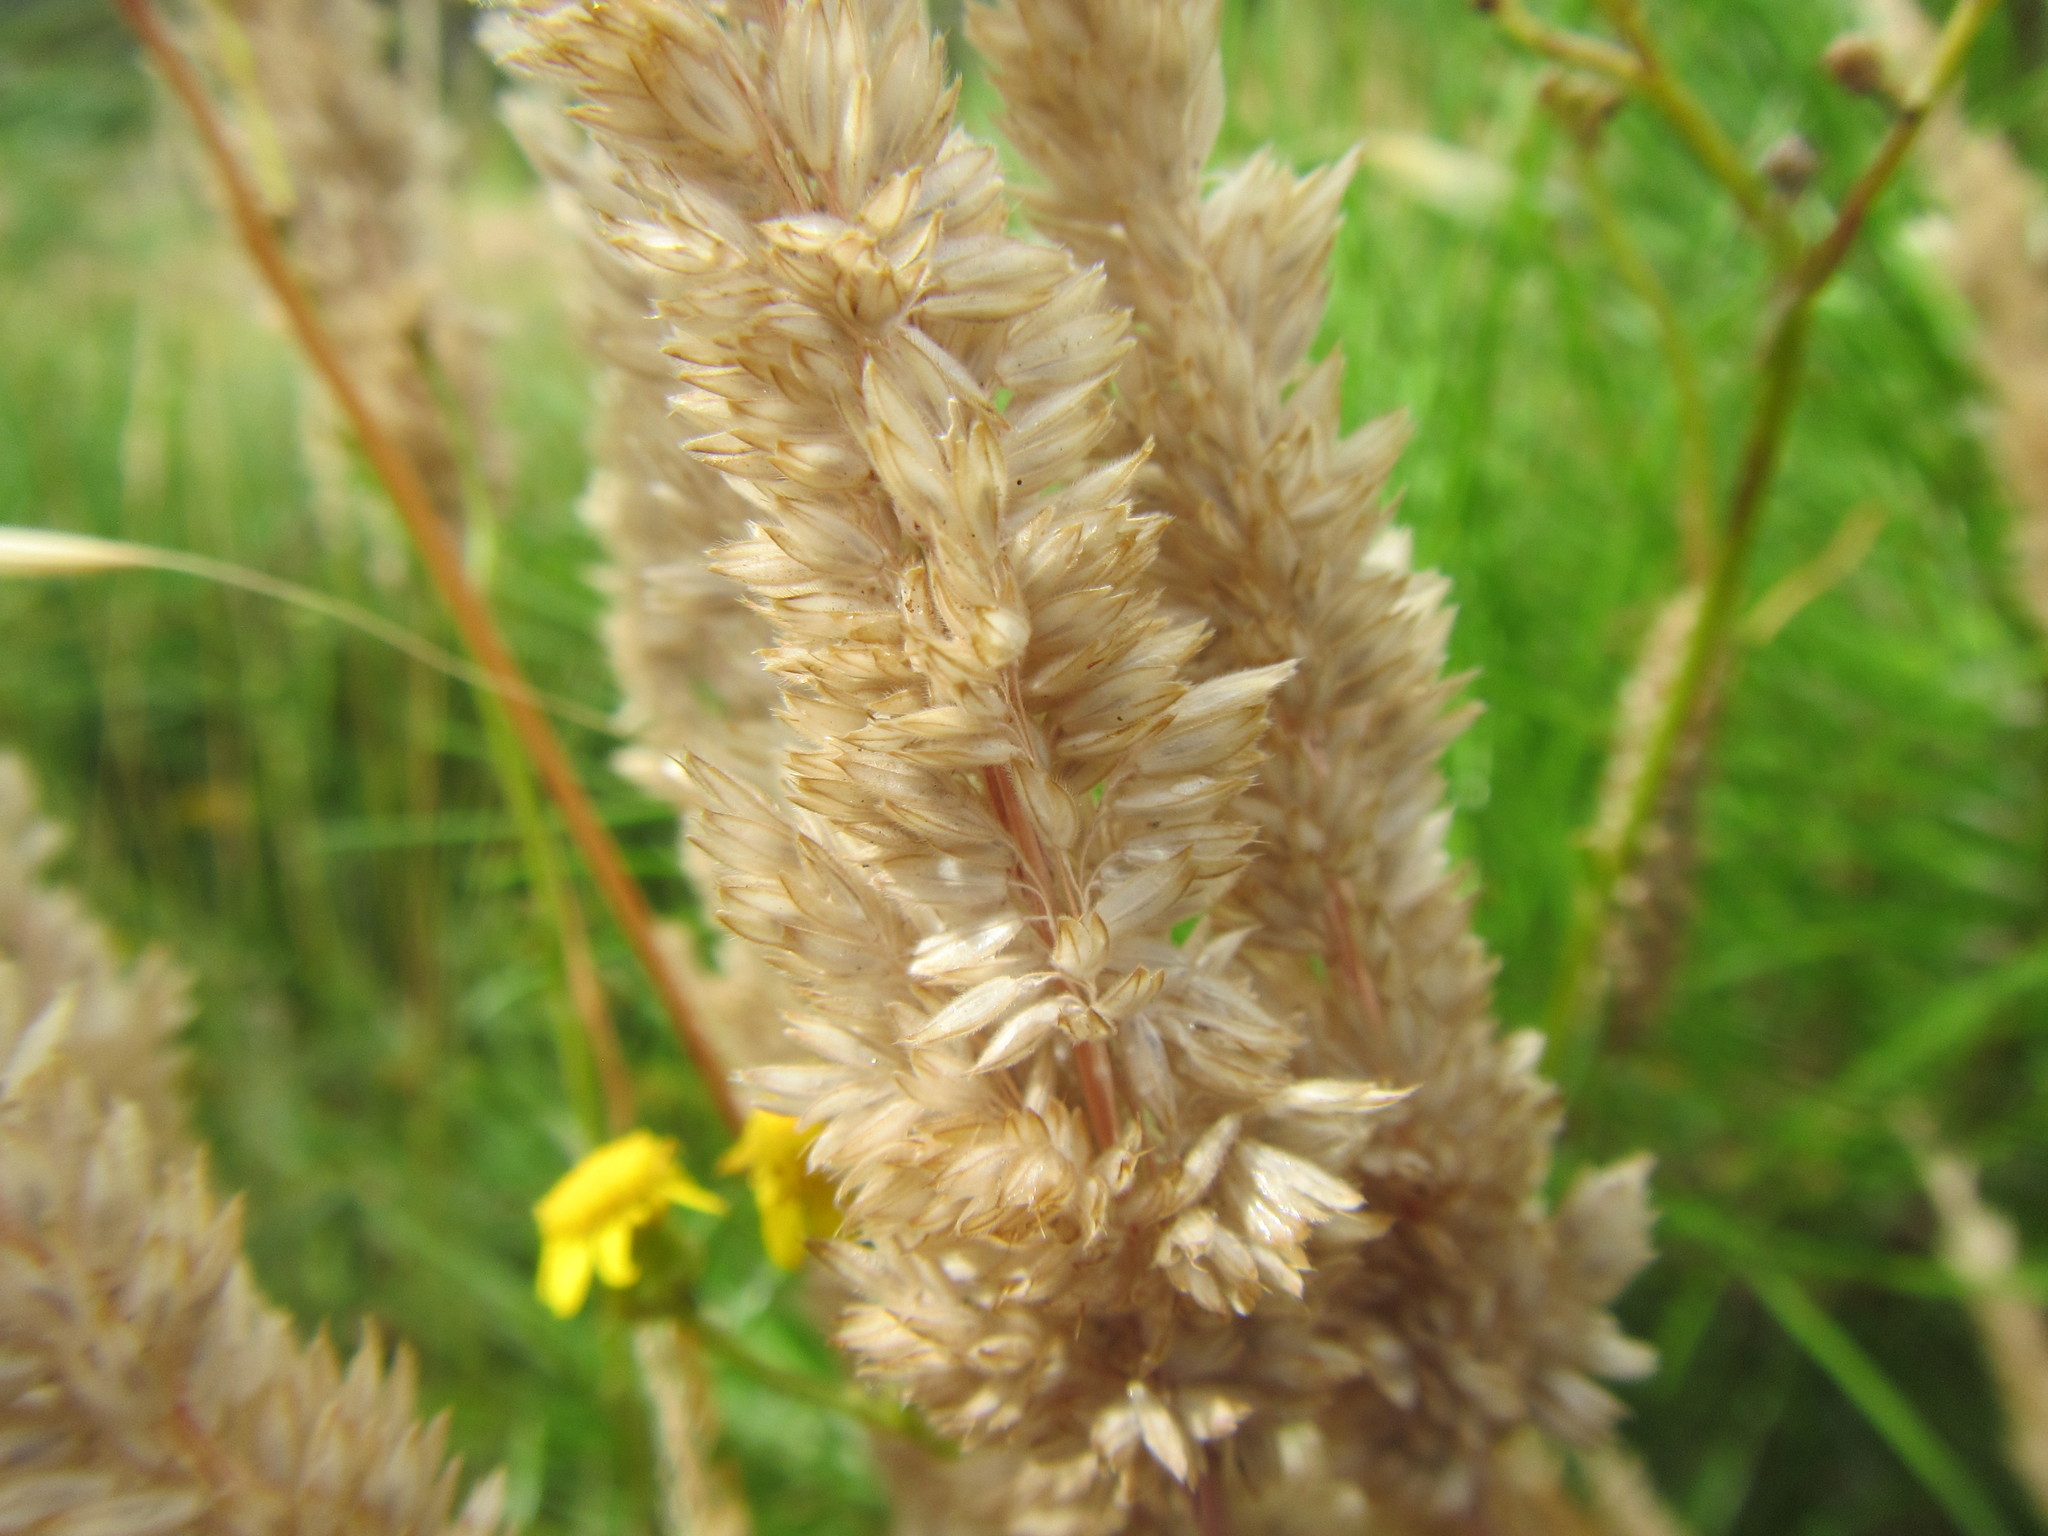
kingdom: Plantae
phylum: Tracheophyta
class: Liliopsida
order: Poales
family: Poaceae
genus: Holcus
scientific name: Holcus lanatus
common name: Yorkshire-fog
